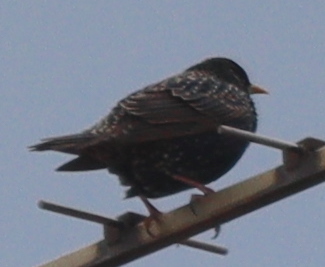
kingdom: Animalia
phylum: Chordata
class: Aves
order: Passeriformes
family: Sturnidae
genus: Sturnus
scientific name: Sturnus vulgaris
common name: Common starling
